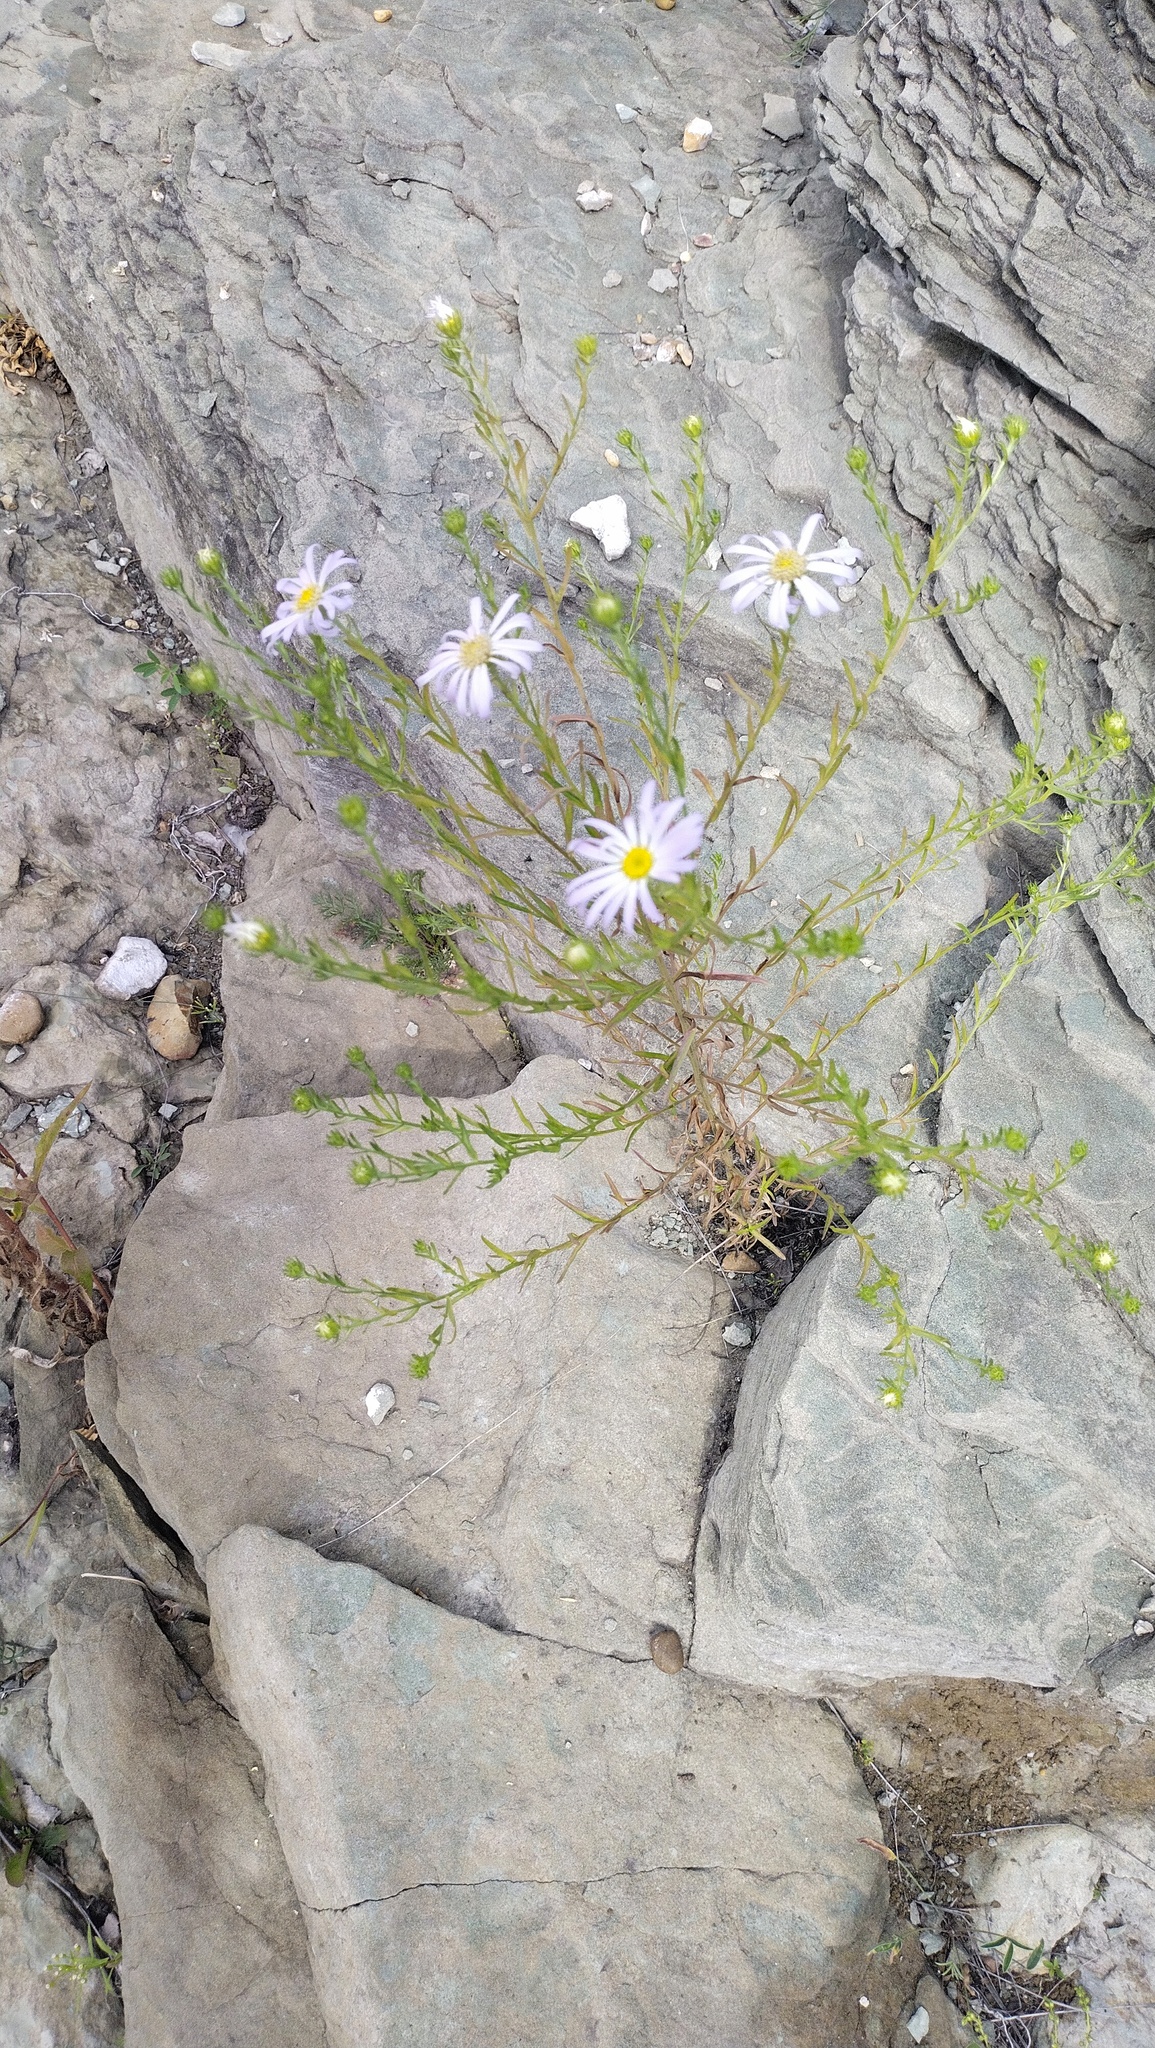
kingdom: Plantae
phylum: Tracheophyta
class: Magnoliopsida
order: Asterales
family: Asteraceae
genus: Aster
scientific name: Aster biennis
